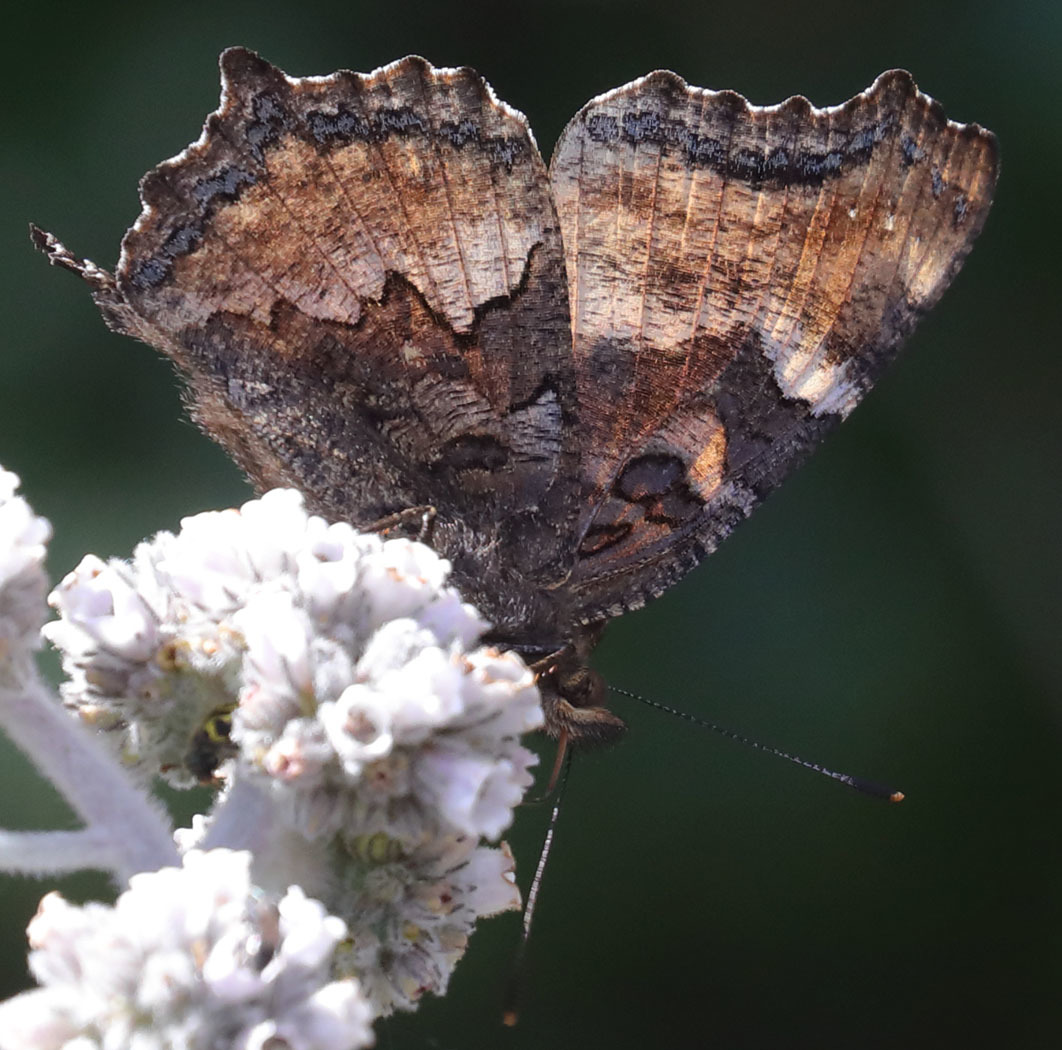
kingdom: Animalia
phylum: Arthropoda
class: Insecta
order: Lepidoptera
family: Nymphalidae
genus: Nymphalis
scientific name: Nymphalis californica
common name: California tortoiseshell
